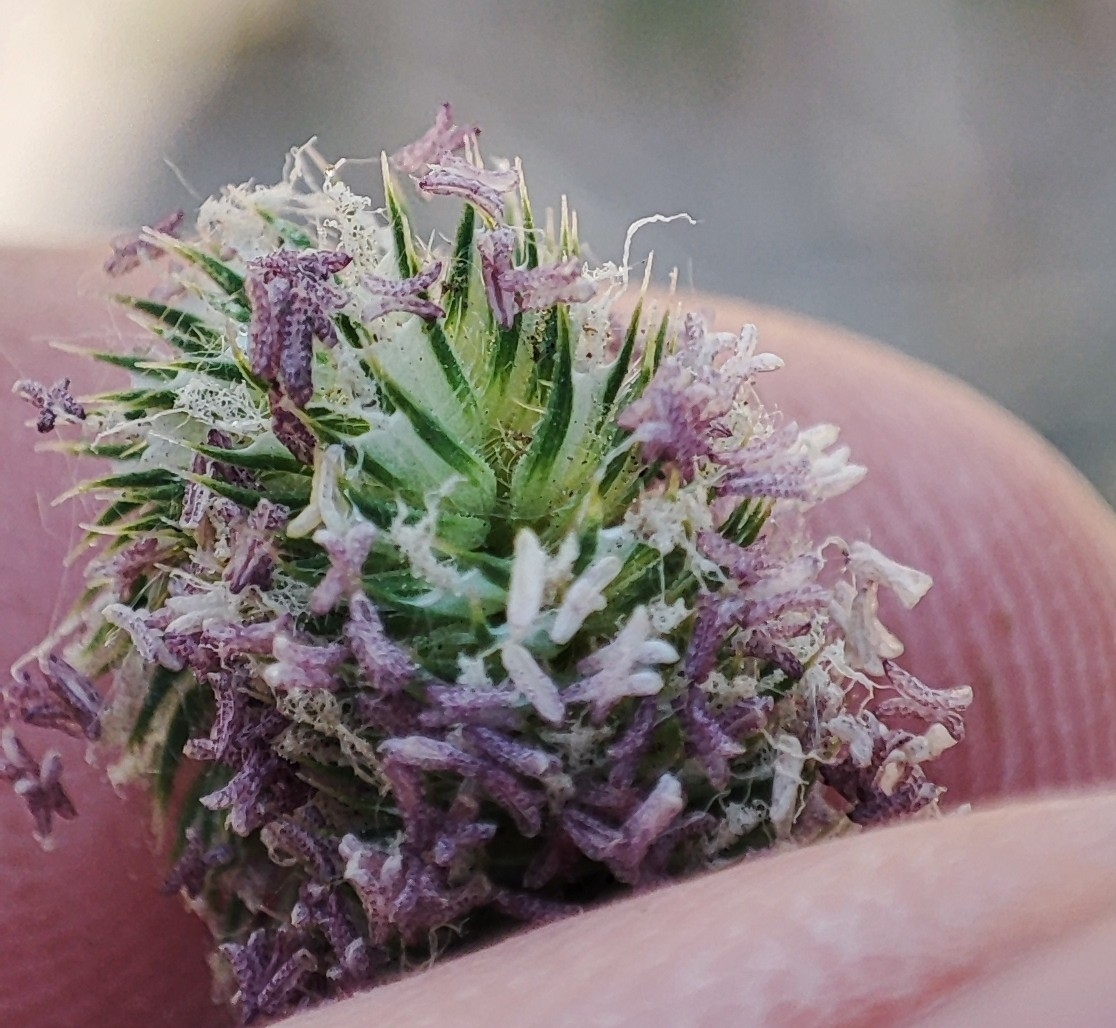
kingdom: Plantae
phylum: Tracheophyta
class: Liliopsida
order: Poales
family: Poaceae
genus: Phleum
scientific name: Phleum pratense
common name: Timothy grass
